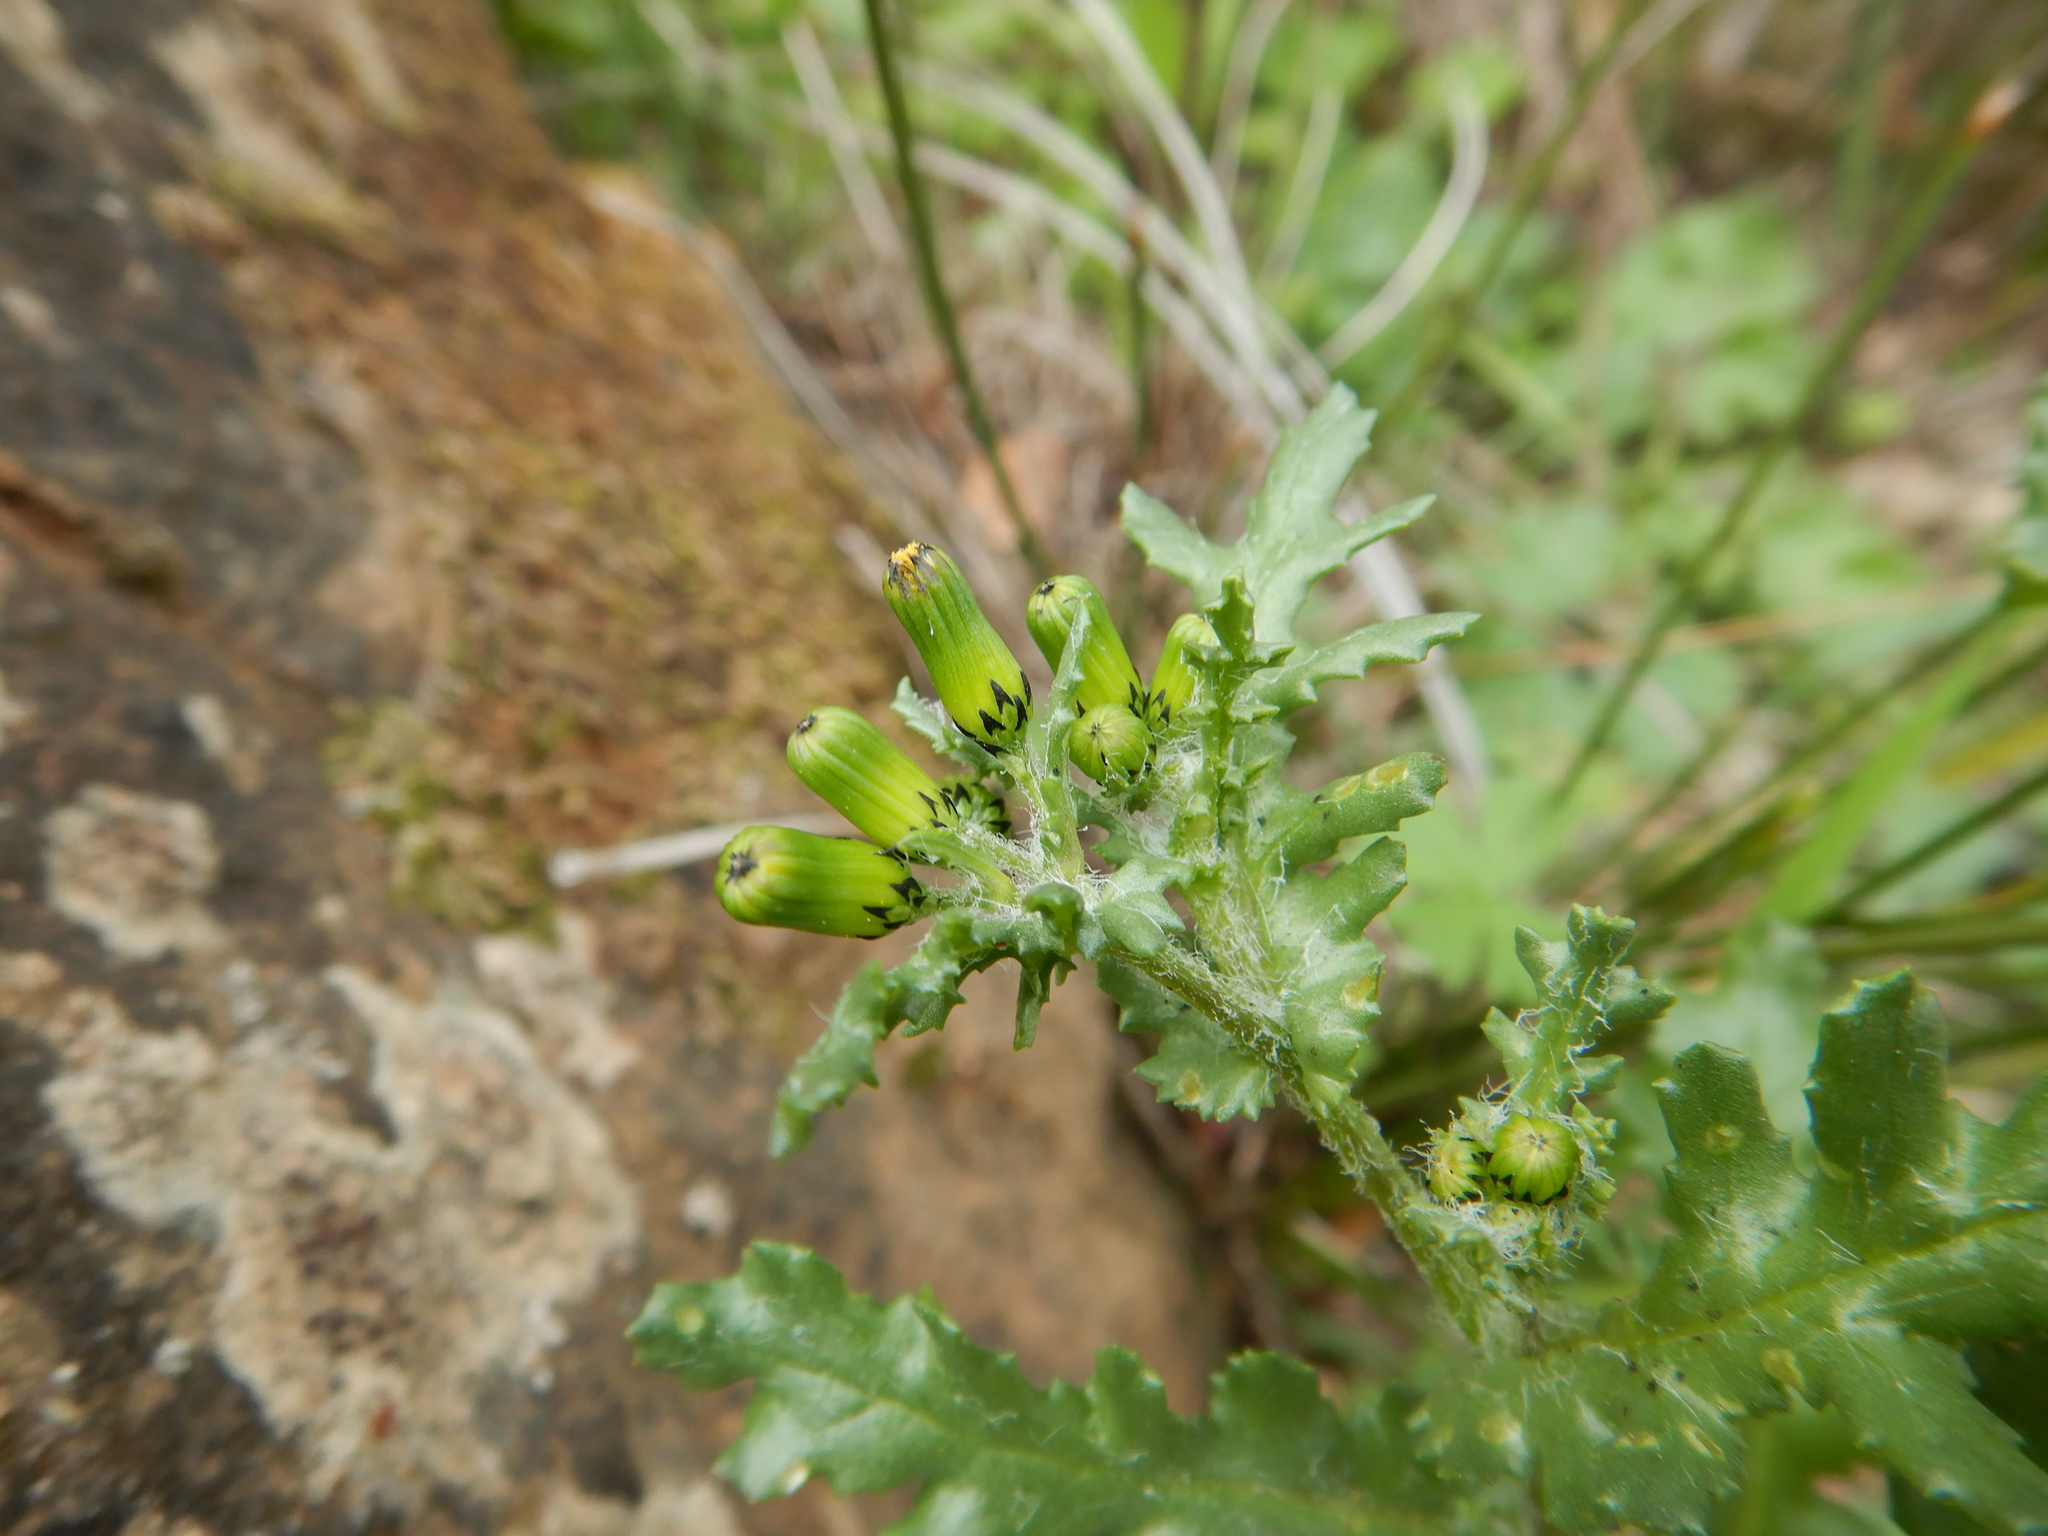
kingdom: Plantae
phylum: Tracheophyta
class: Magnoliopsida
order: Asterales
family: Asteraceae
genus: Senecio
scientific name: Senecio vulgaris
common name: Old-man-in-the-spring
